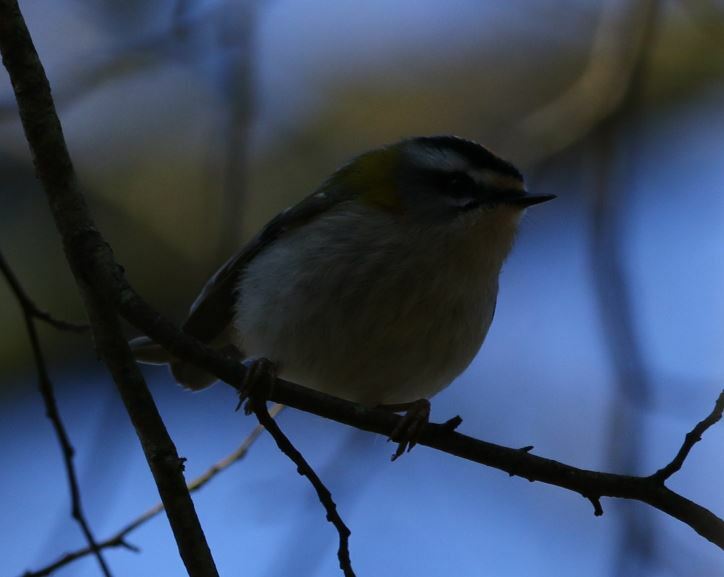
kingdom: Animalia
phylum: Chordata
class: Aves
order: Passeriformes
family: Regulidae
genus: Regulus
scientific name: Regulus ignicapilla
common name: Firecrest
